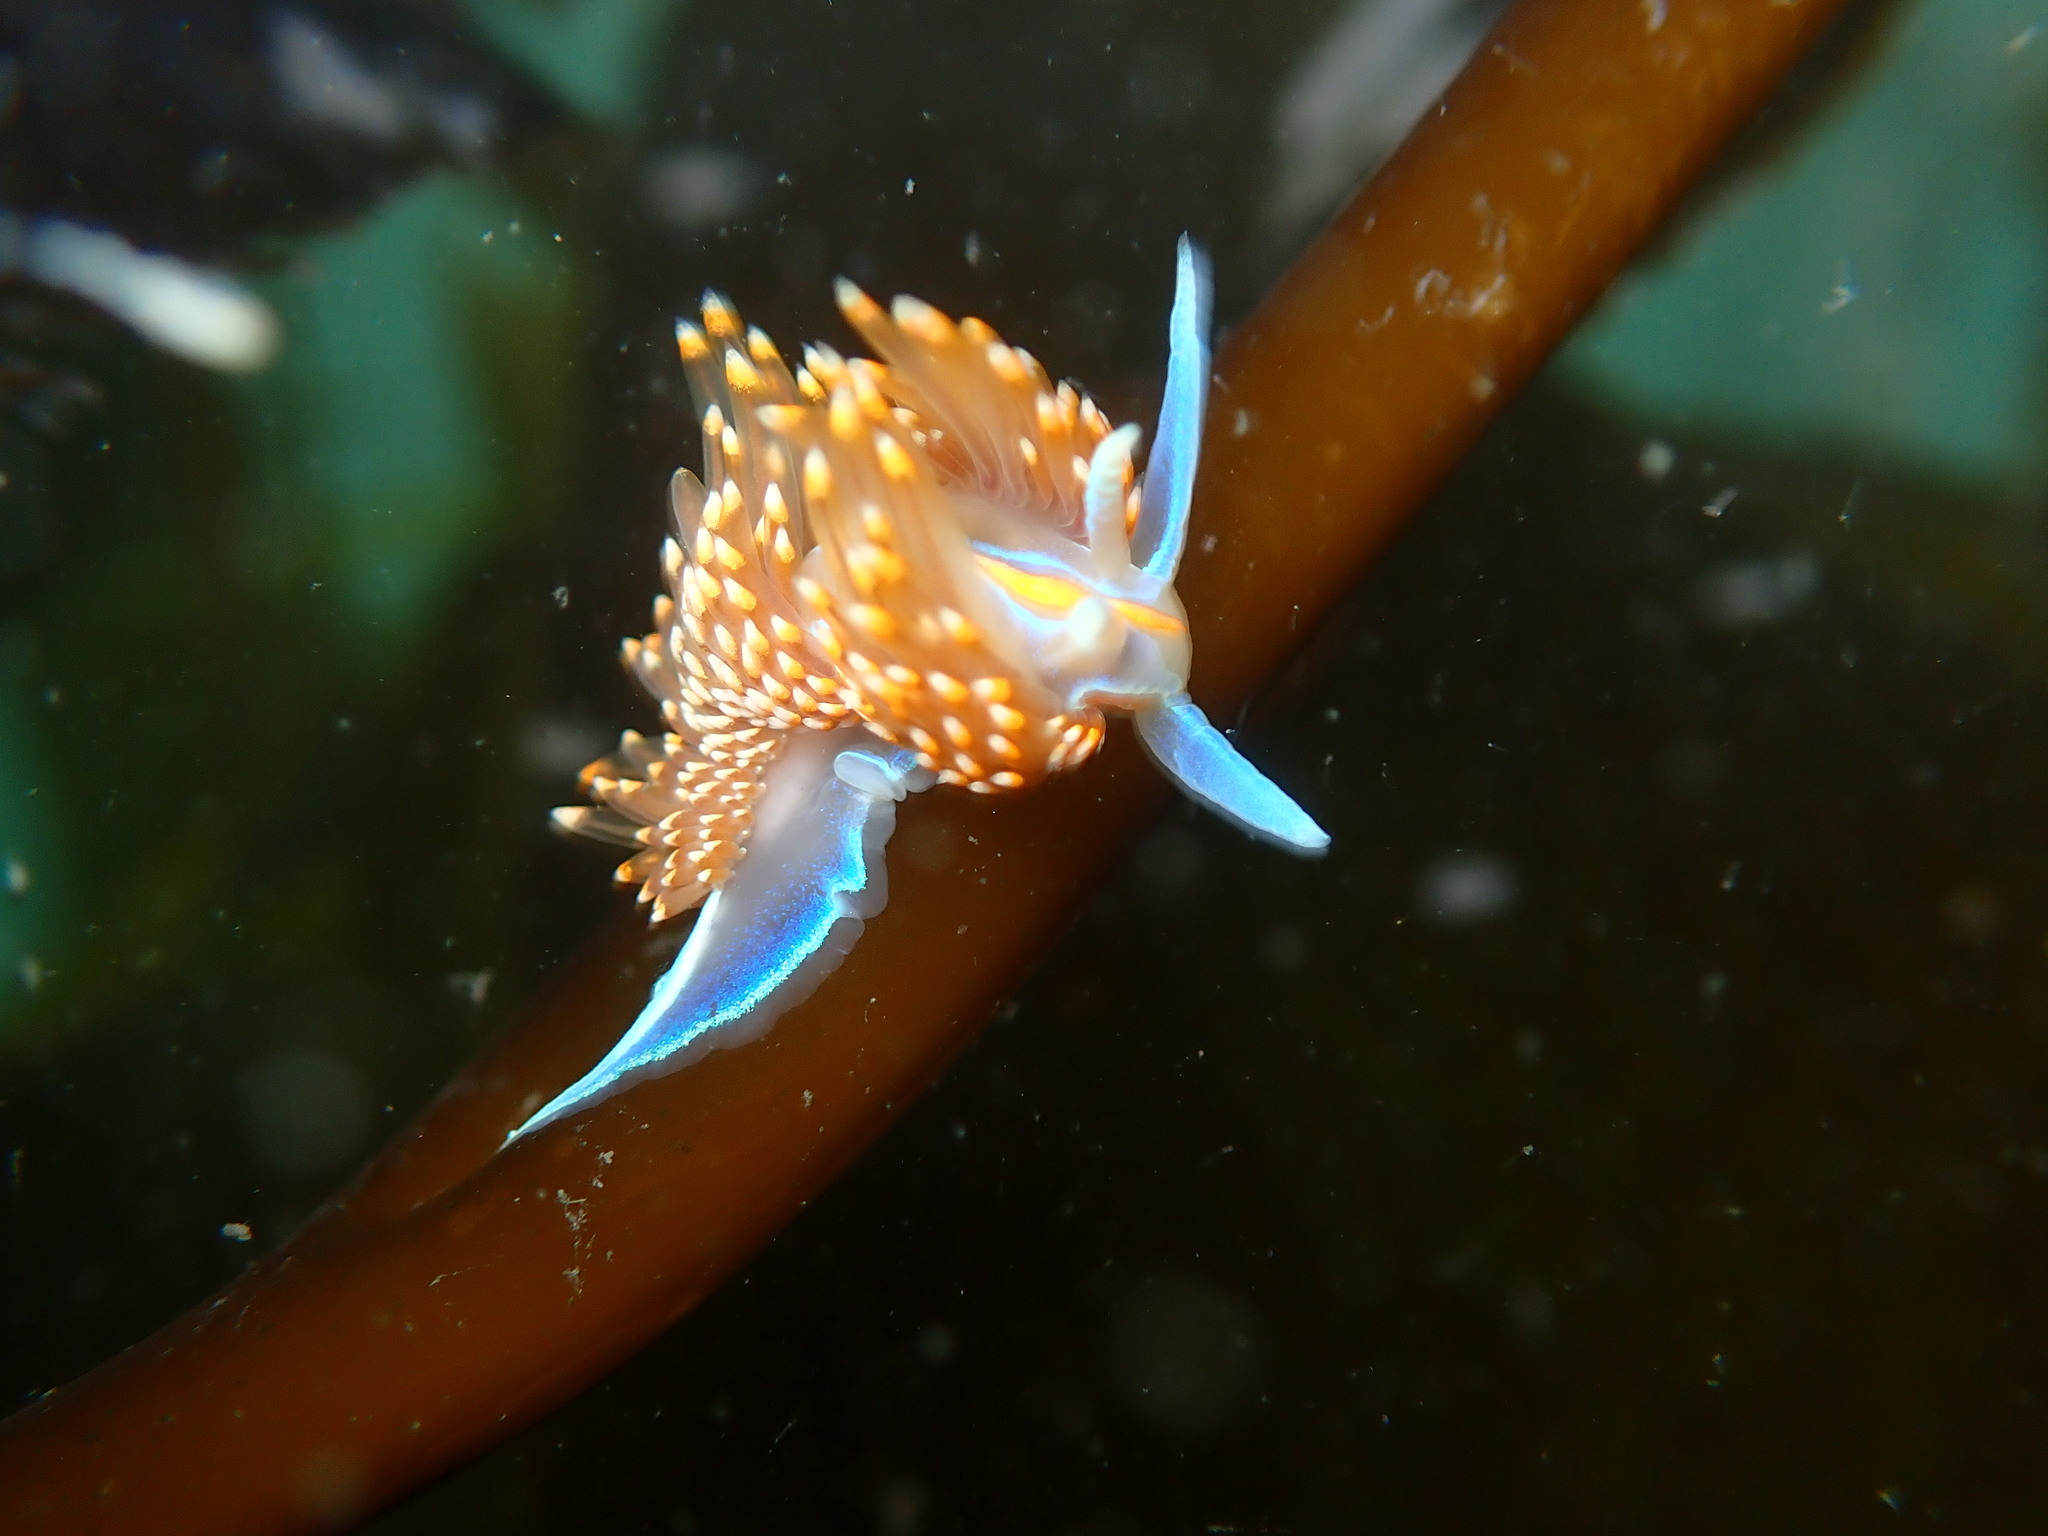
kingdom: Animalia
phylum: Mollusca
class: Gastropoda
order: Nudibranchia
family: Myrrhinidae
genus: Hermissenda
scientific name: Hermissenda opalescens
